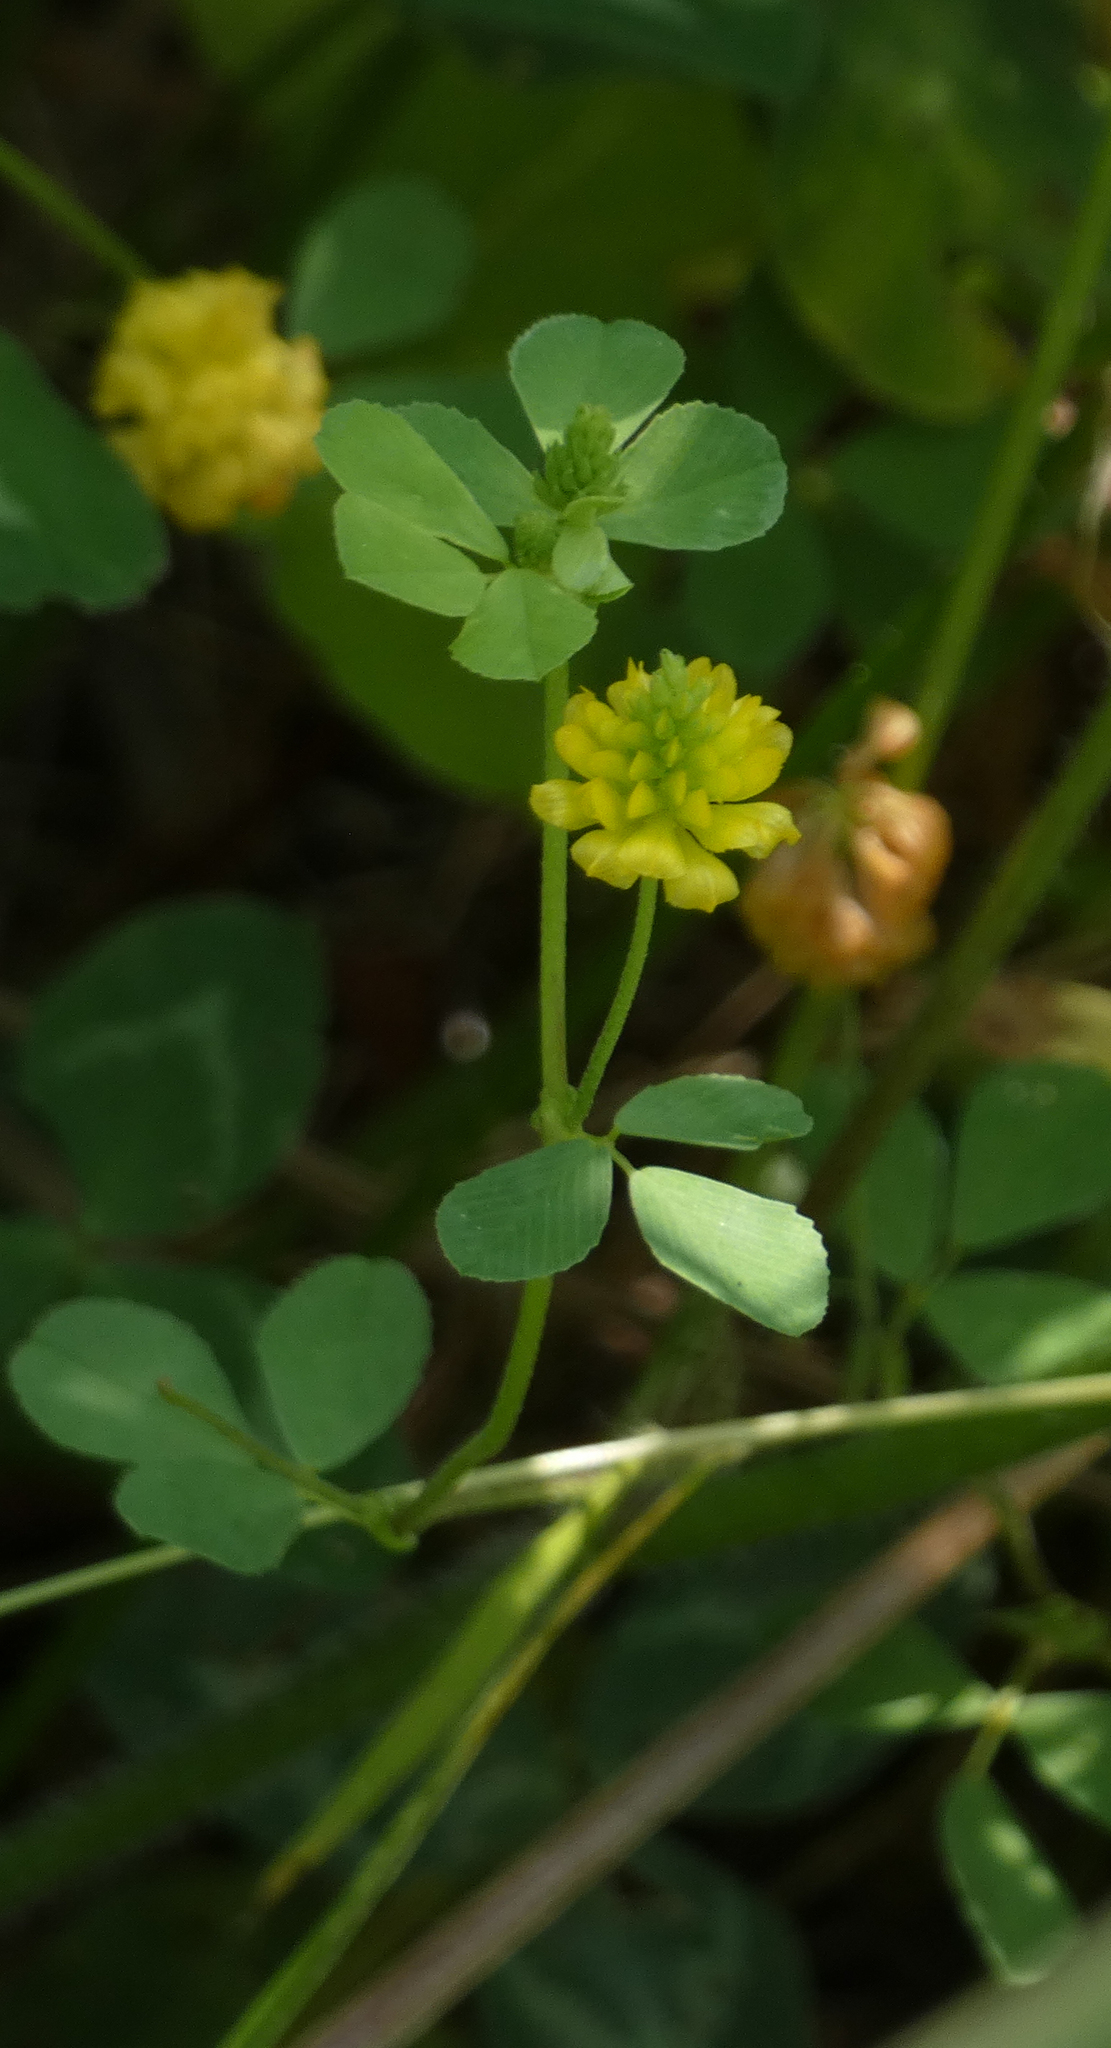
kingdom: Plantae
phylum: Tracheophyta
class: Magnoliopsida
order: Fabales
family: Fabaceae
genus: Trifolium
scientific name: Trifolium campestre
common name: Field clover
